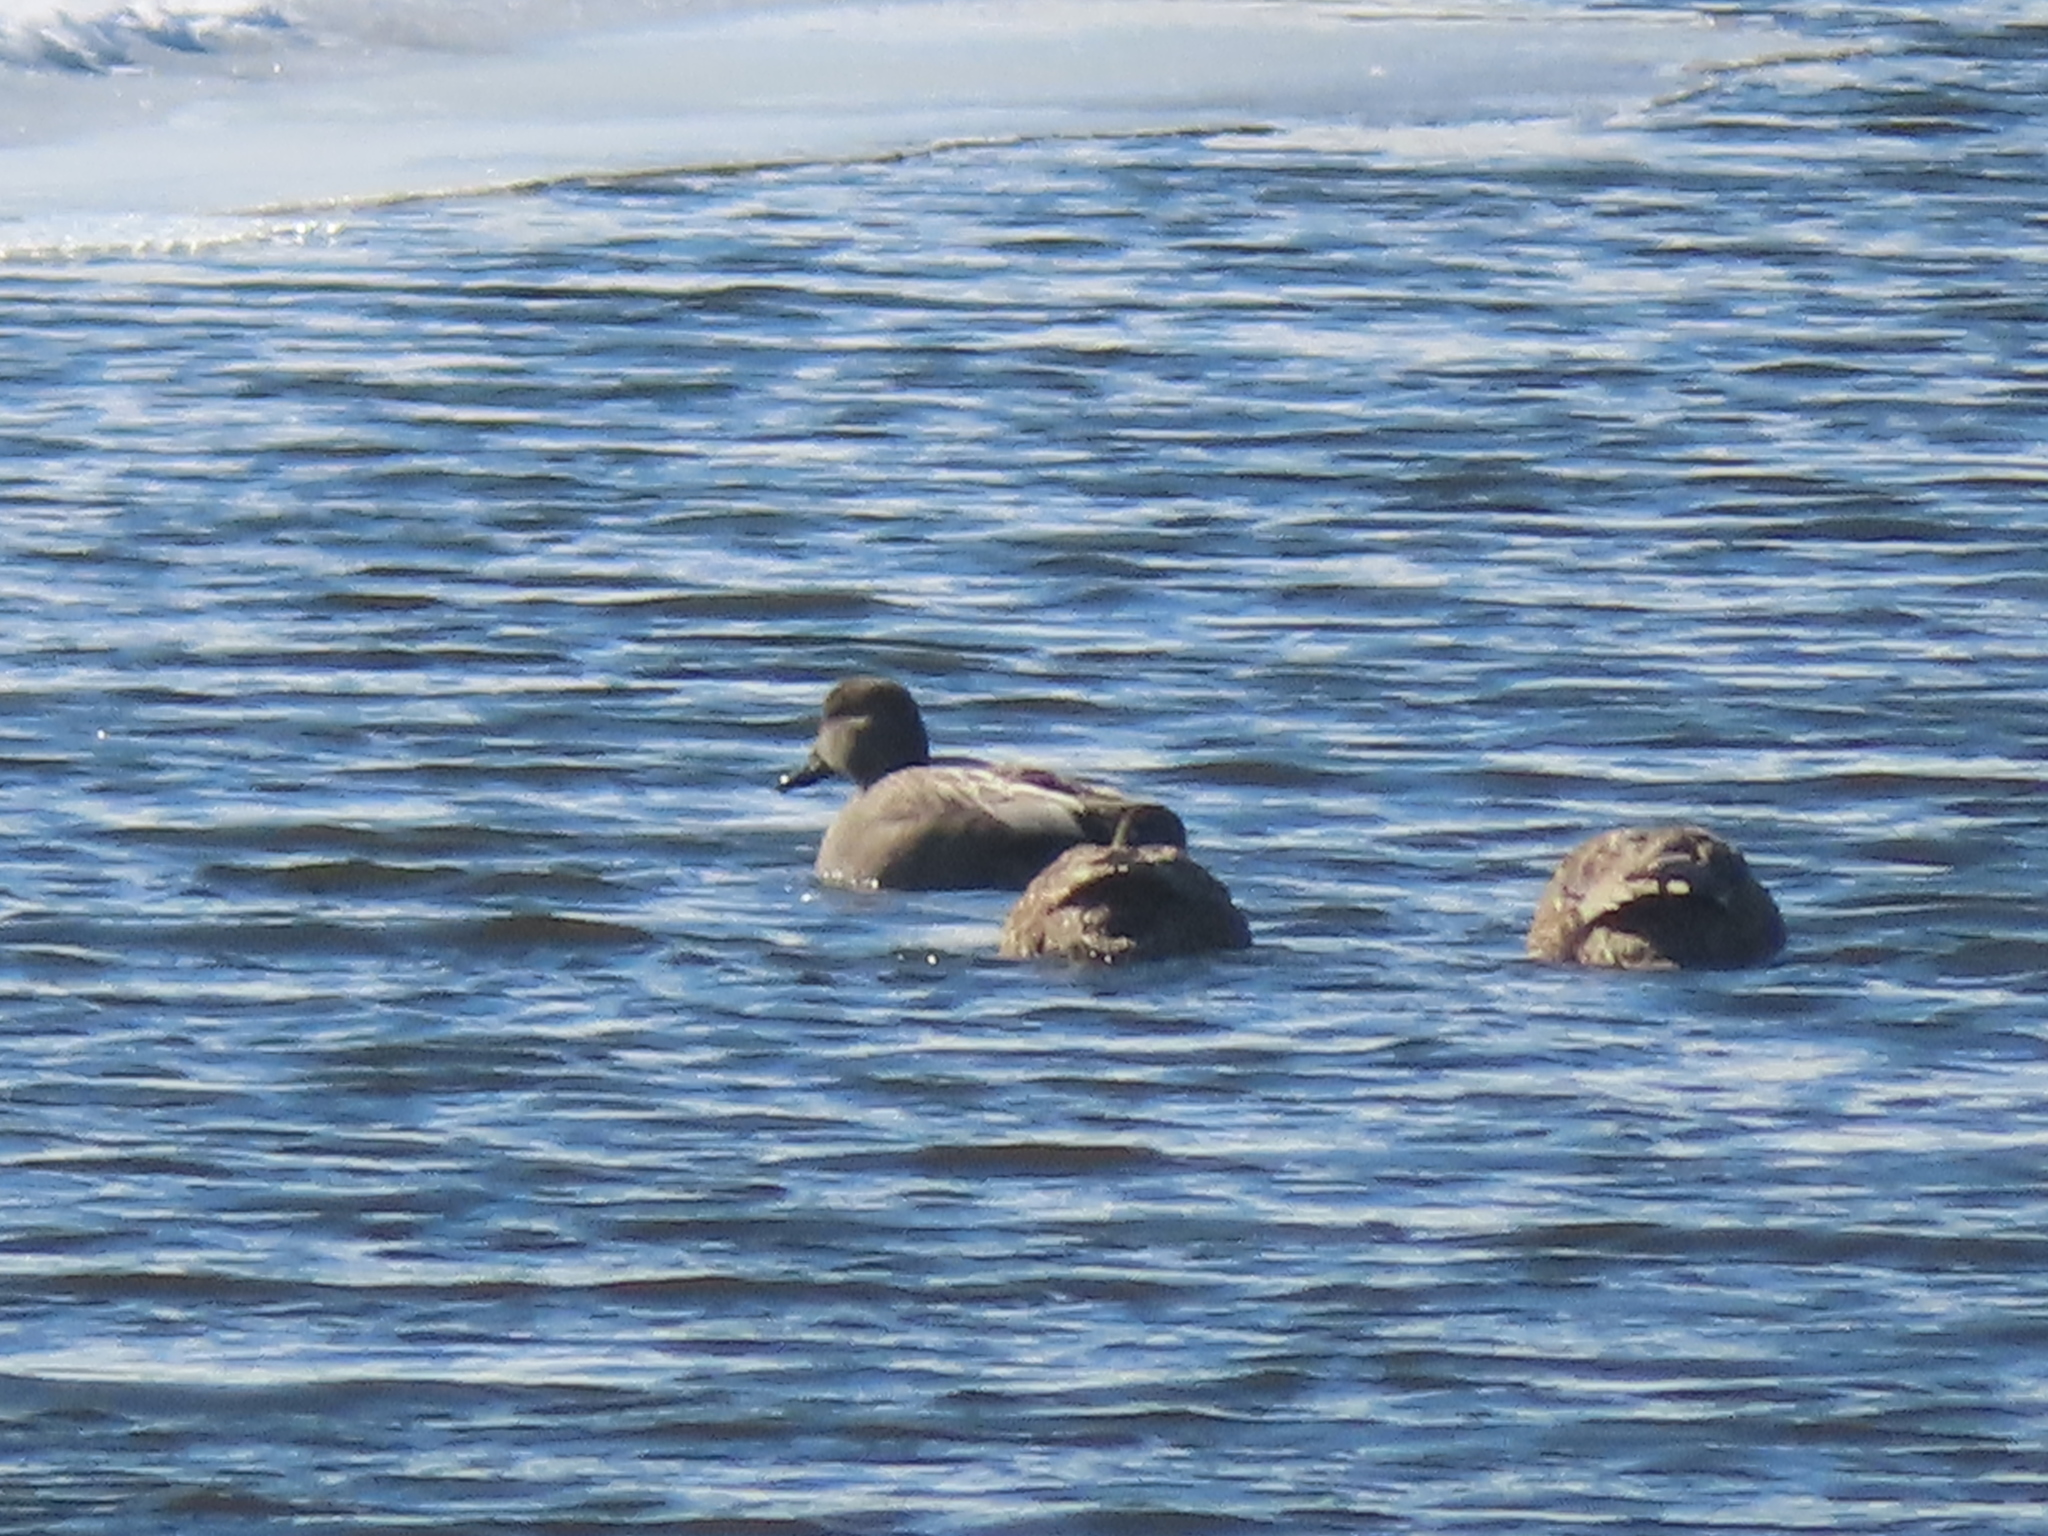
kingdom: Animalia
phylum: Chordata
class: Aves
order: Anseriformes
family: Anatidae
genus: Mareca
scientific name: Mareca strepera
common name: Gadwall
